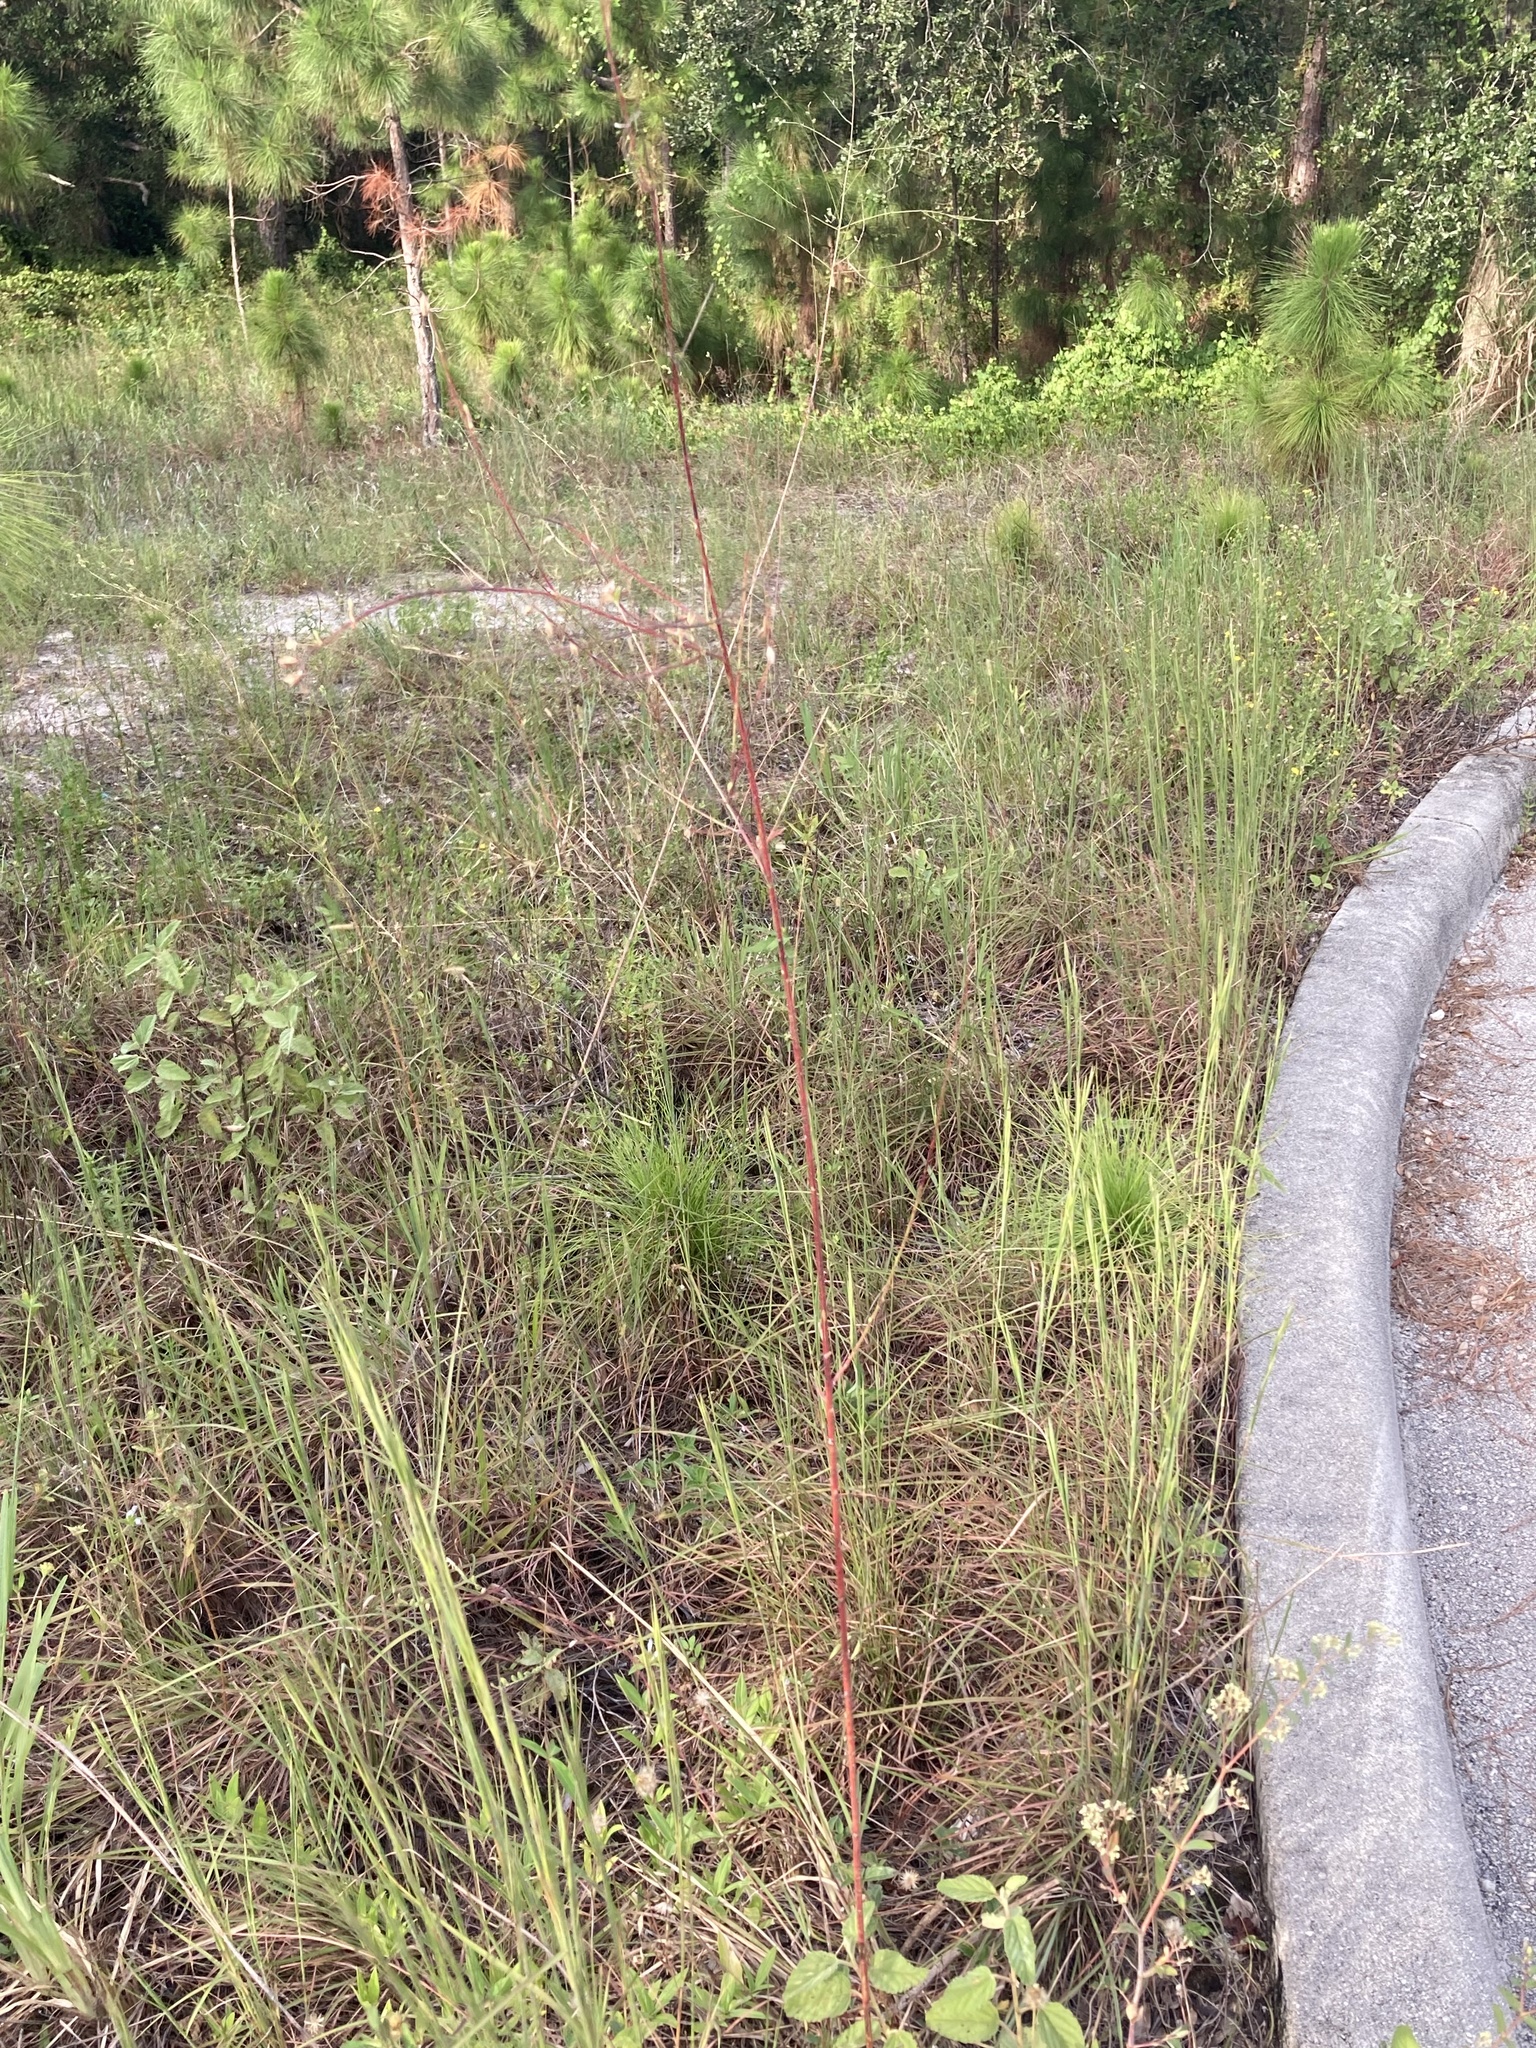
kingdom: Plantae
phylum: Tracheophyta
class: Magnoliopsida
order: Myrtales
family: Onagraceae
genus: Oenothera
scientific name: Oenothera simulans
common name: Southern beeblossom
